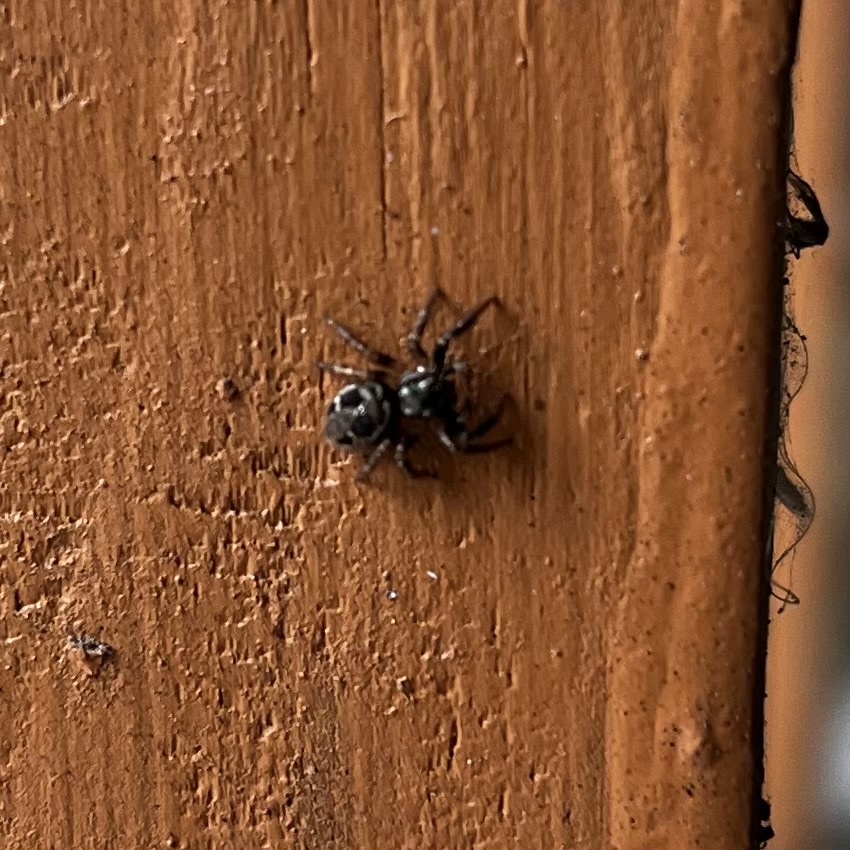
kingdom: Animalia
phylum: Arthropoda
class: Arachnida
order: Araneae
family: Salticidae
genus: Anasaitis
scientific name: Anasaitis canosa
